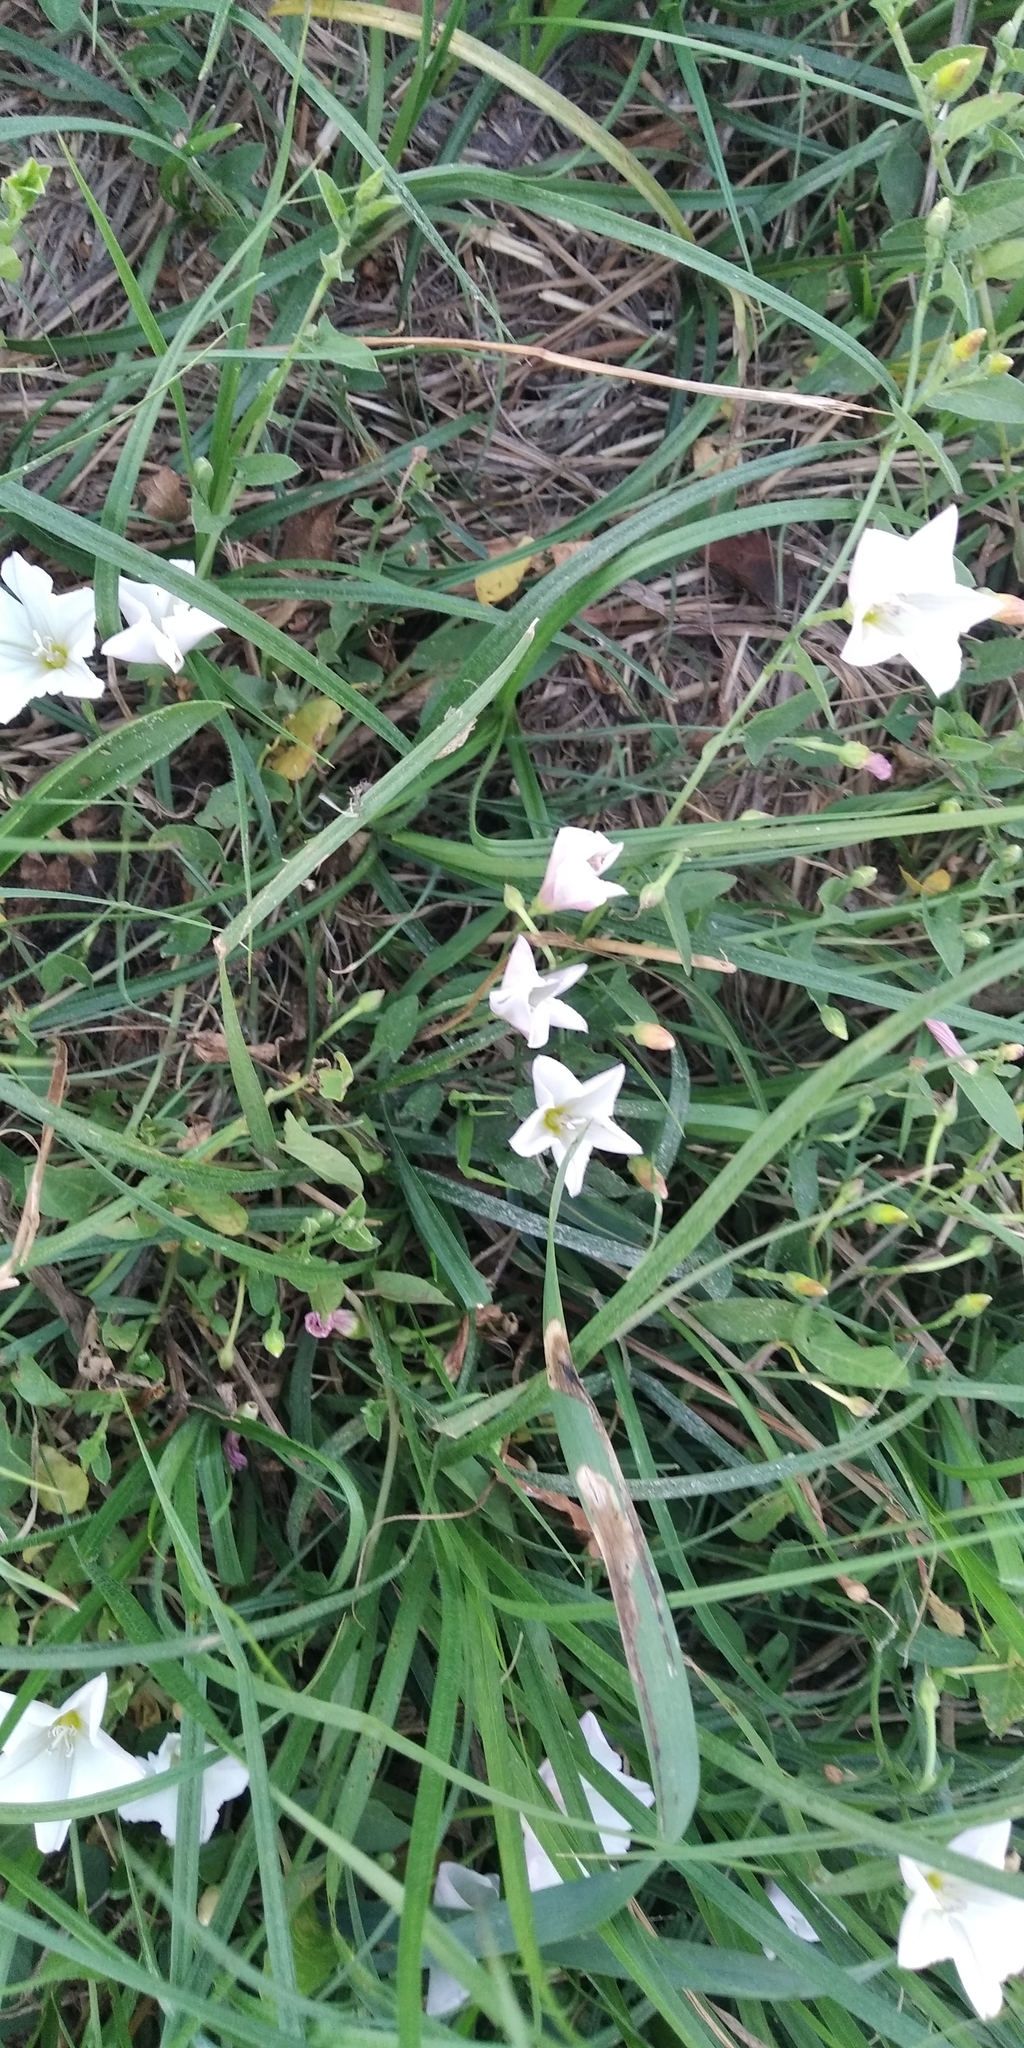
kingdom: Plantae
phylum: Tracheophyta
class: Magnoliopsida
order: Solanales
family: Convolvulaceae
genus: Convolvulus
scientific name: Convolvulus arvensis
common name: Field bindweed
